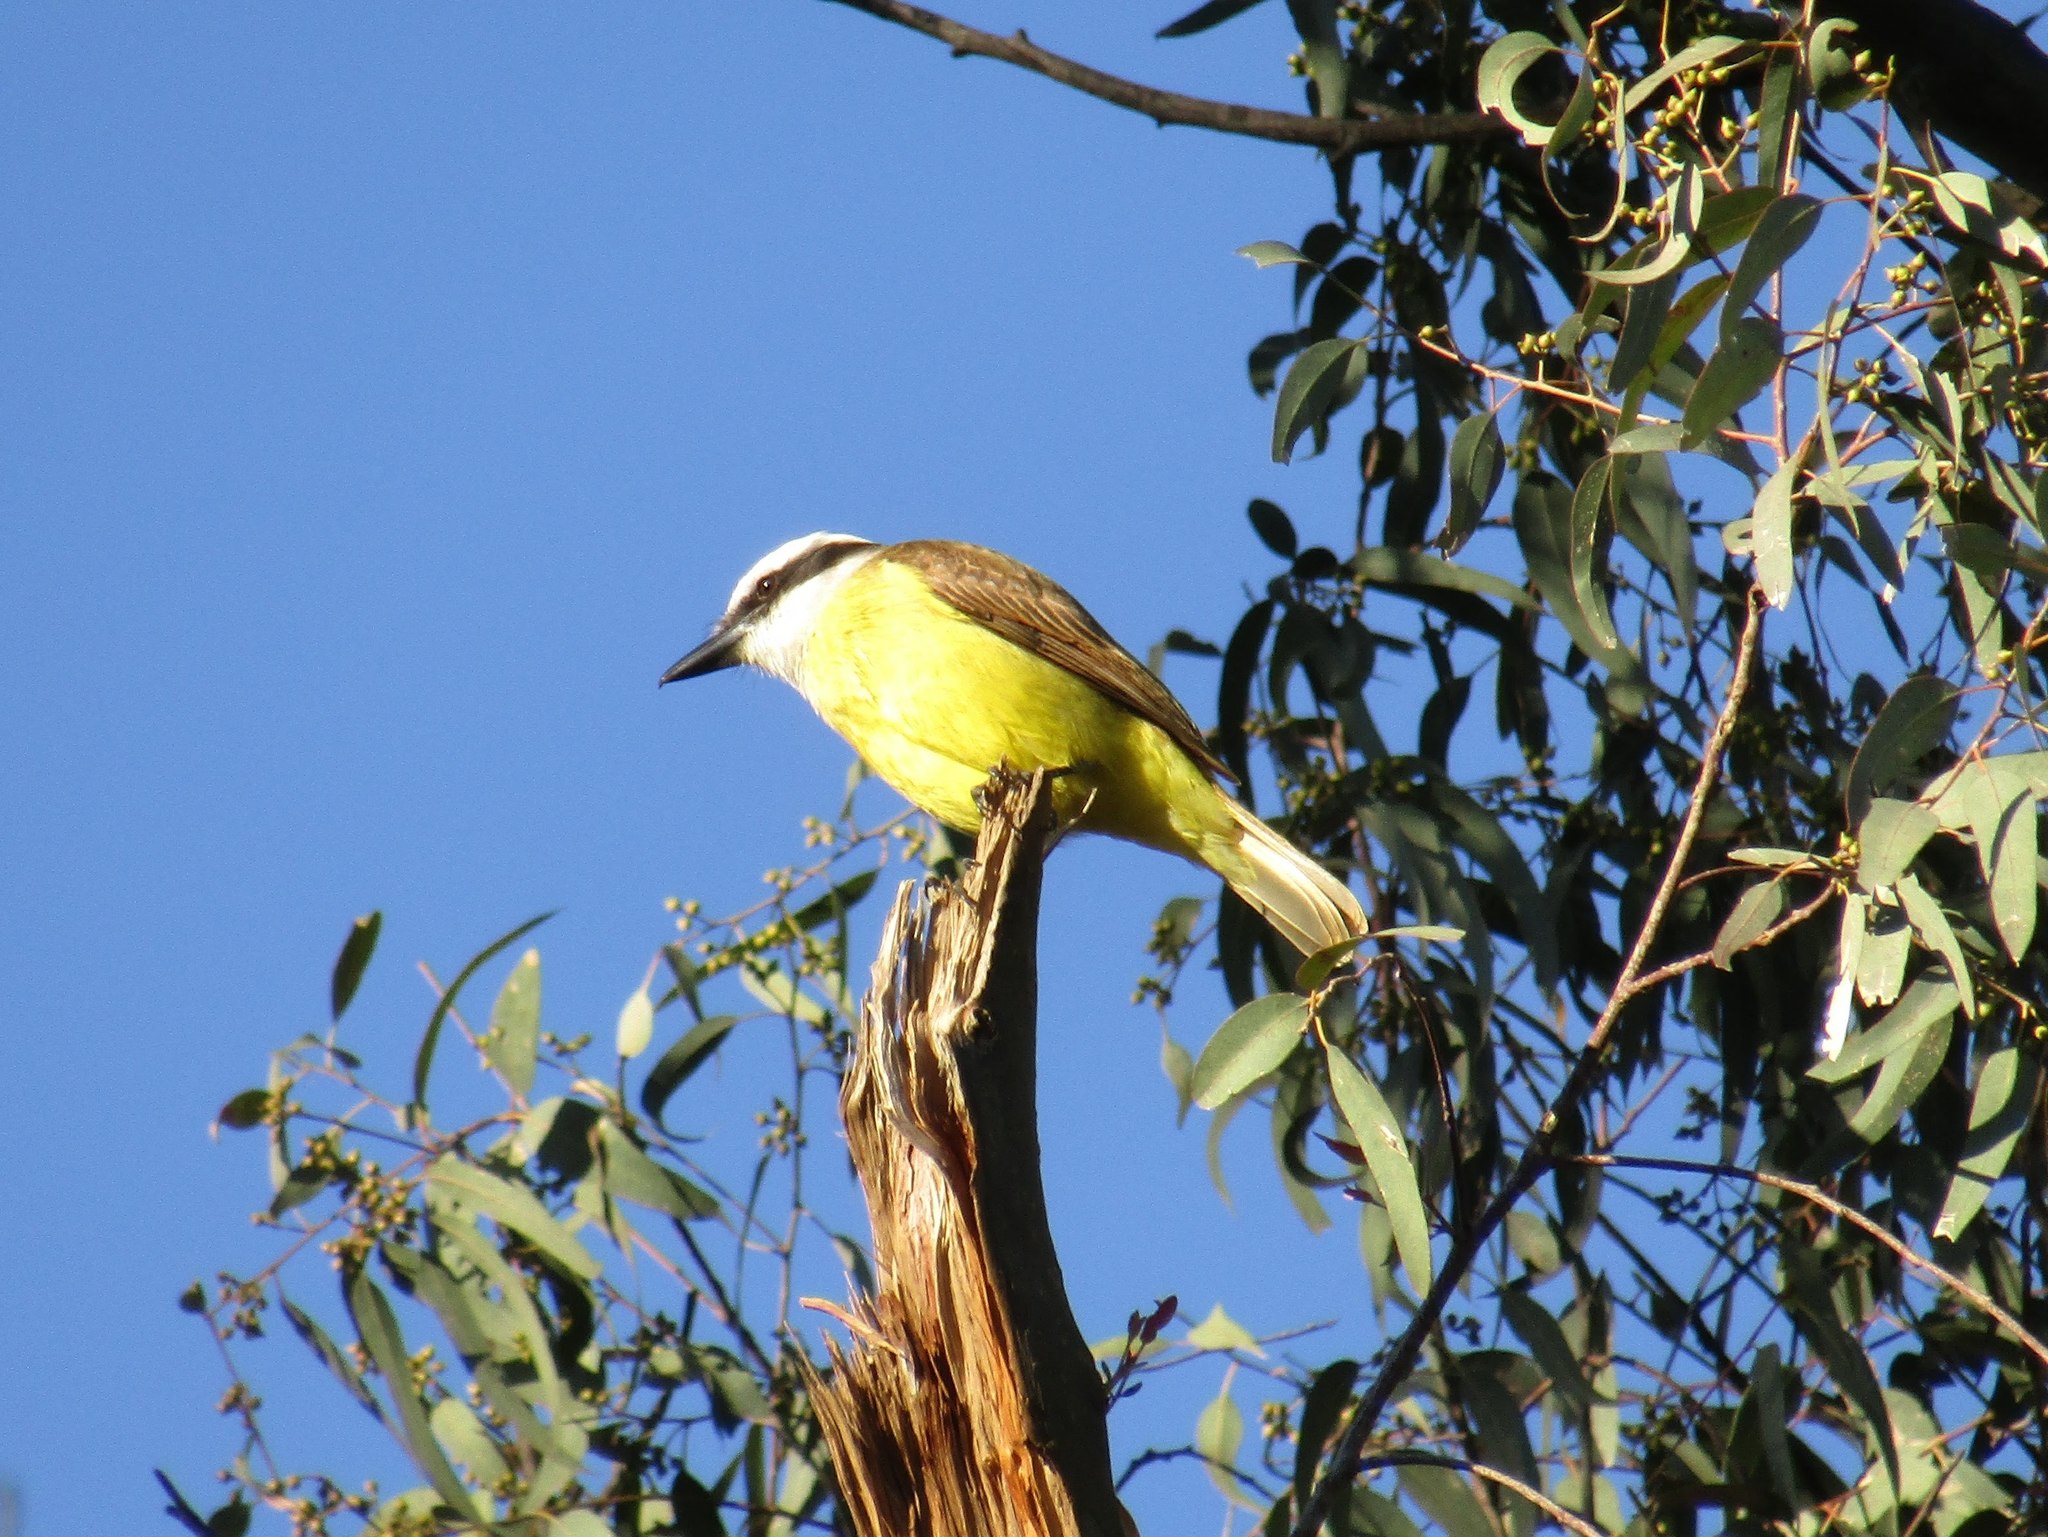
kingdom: Animalia
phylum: Chordata
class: Aves
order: Passeriformes
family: Tyrannidae
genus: Pitangus
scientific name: Pitangus sulphuratus
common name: Great kiskadee
